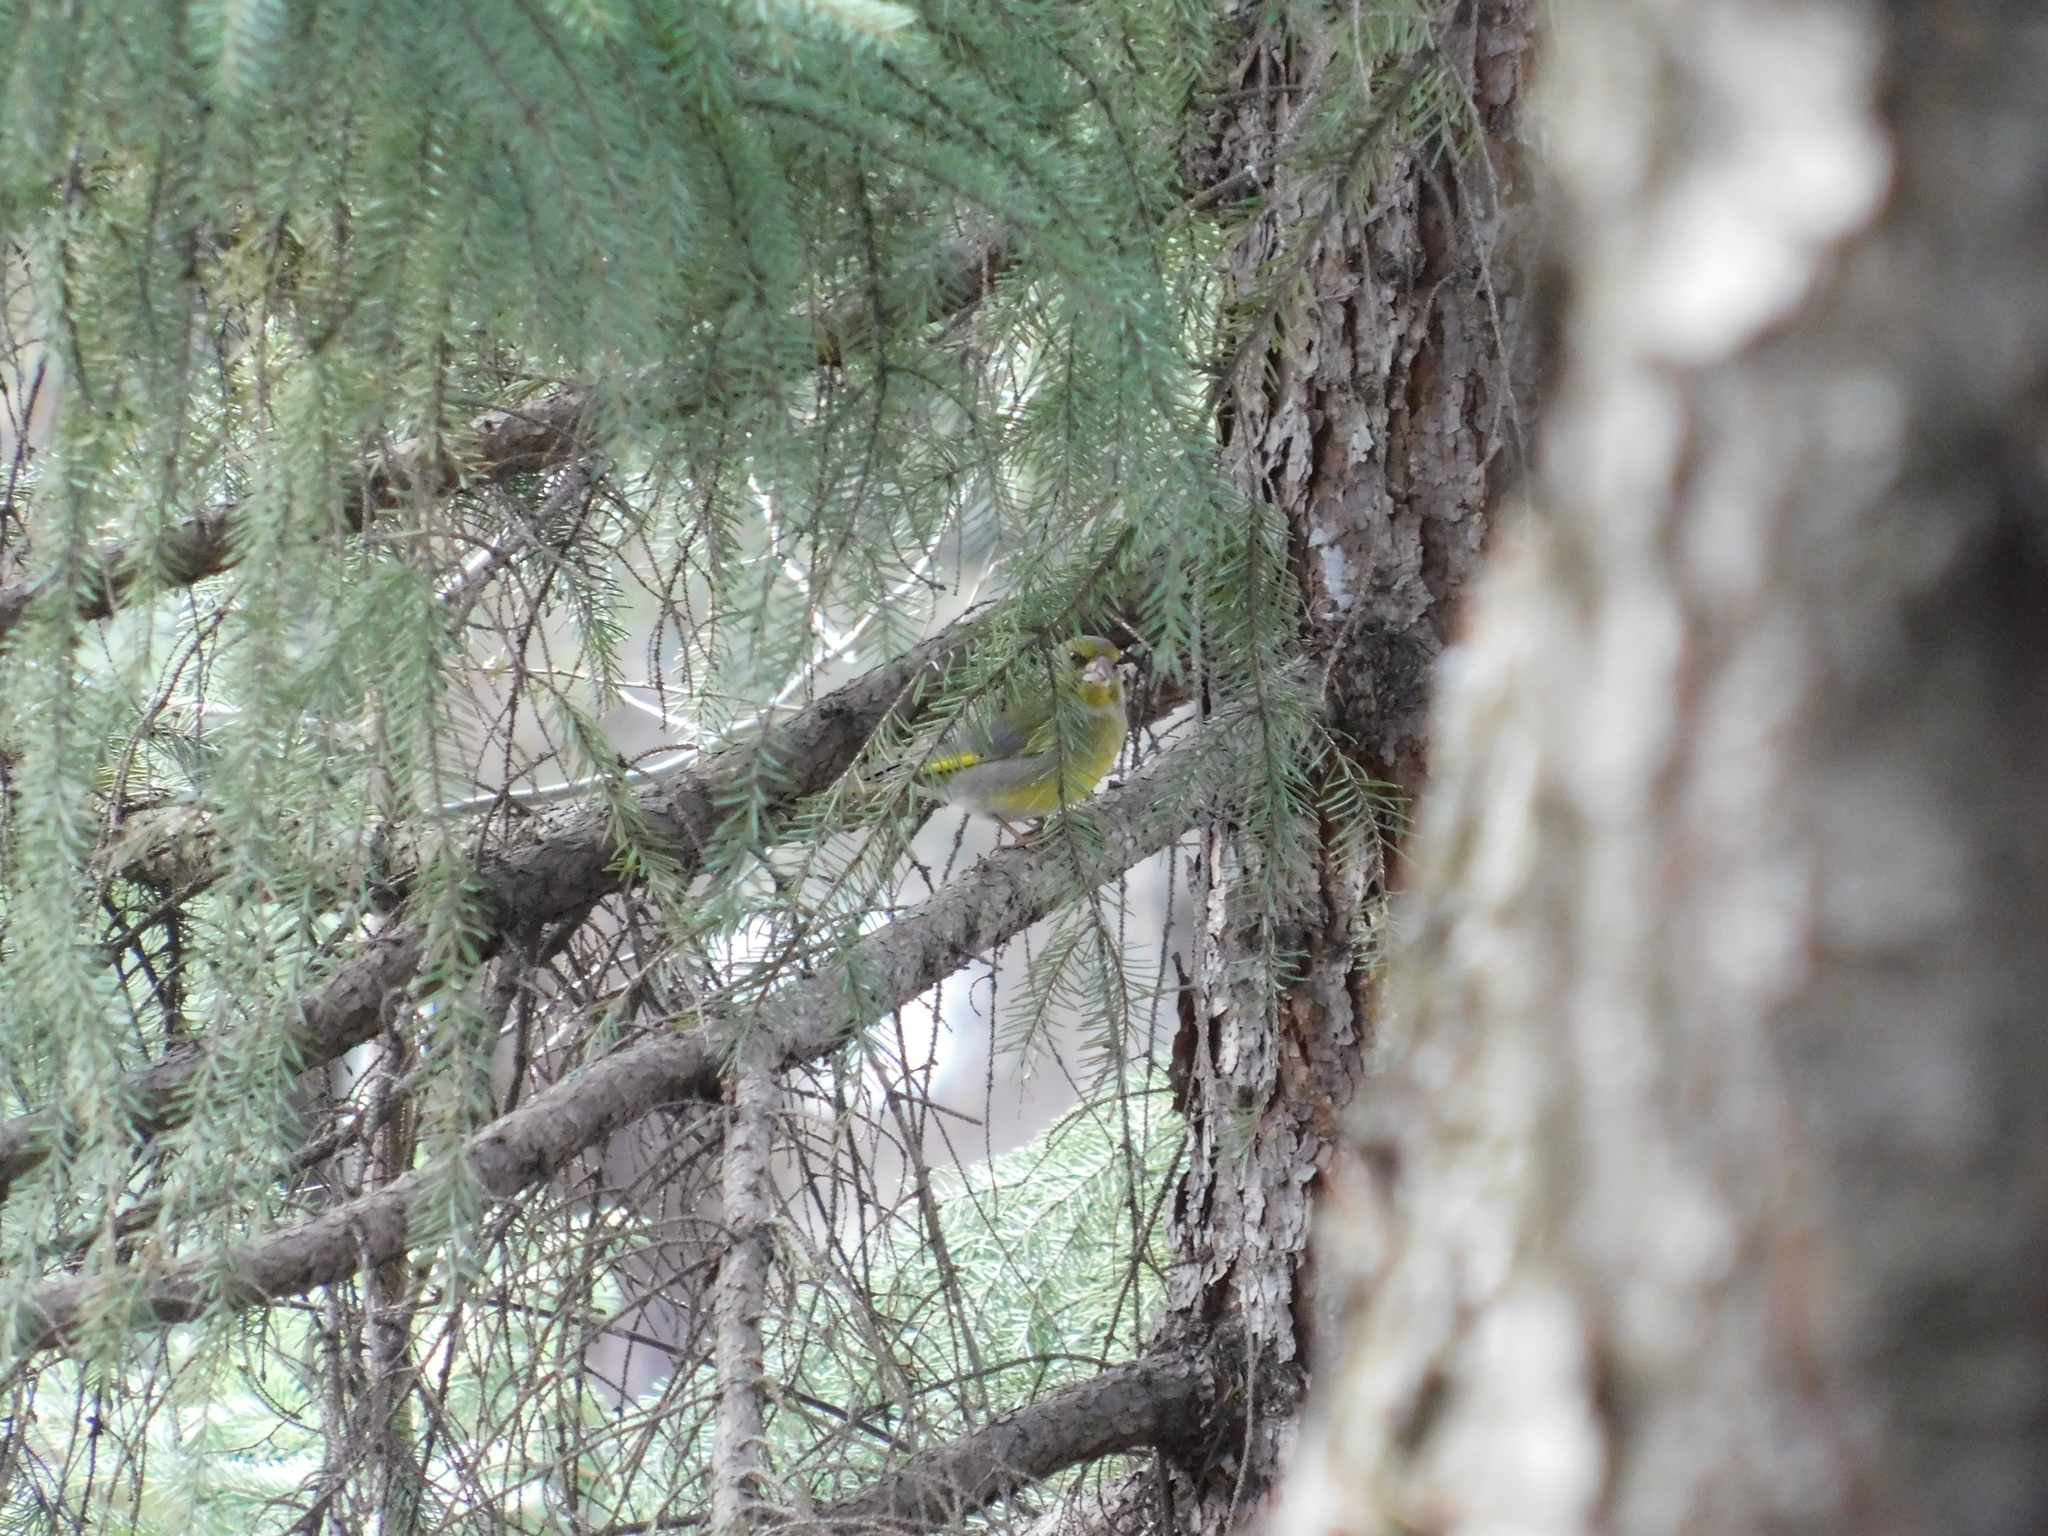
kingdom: Plantae
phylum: Tracheophyta
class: Liliopsida
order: Poales
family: Poaceae
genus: Chloris
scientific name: Chloris chloris
